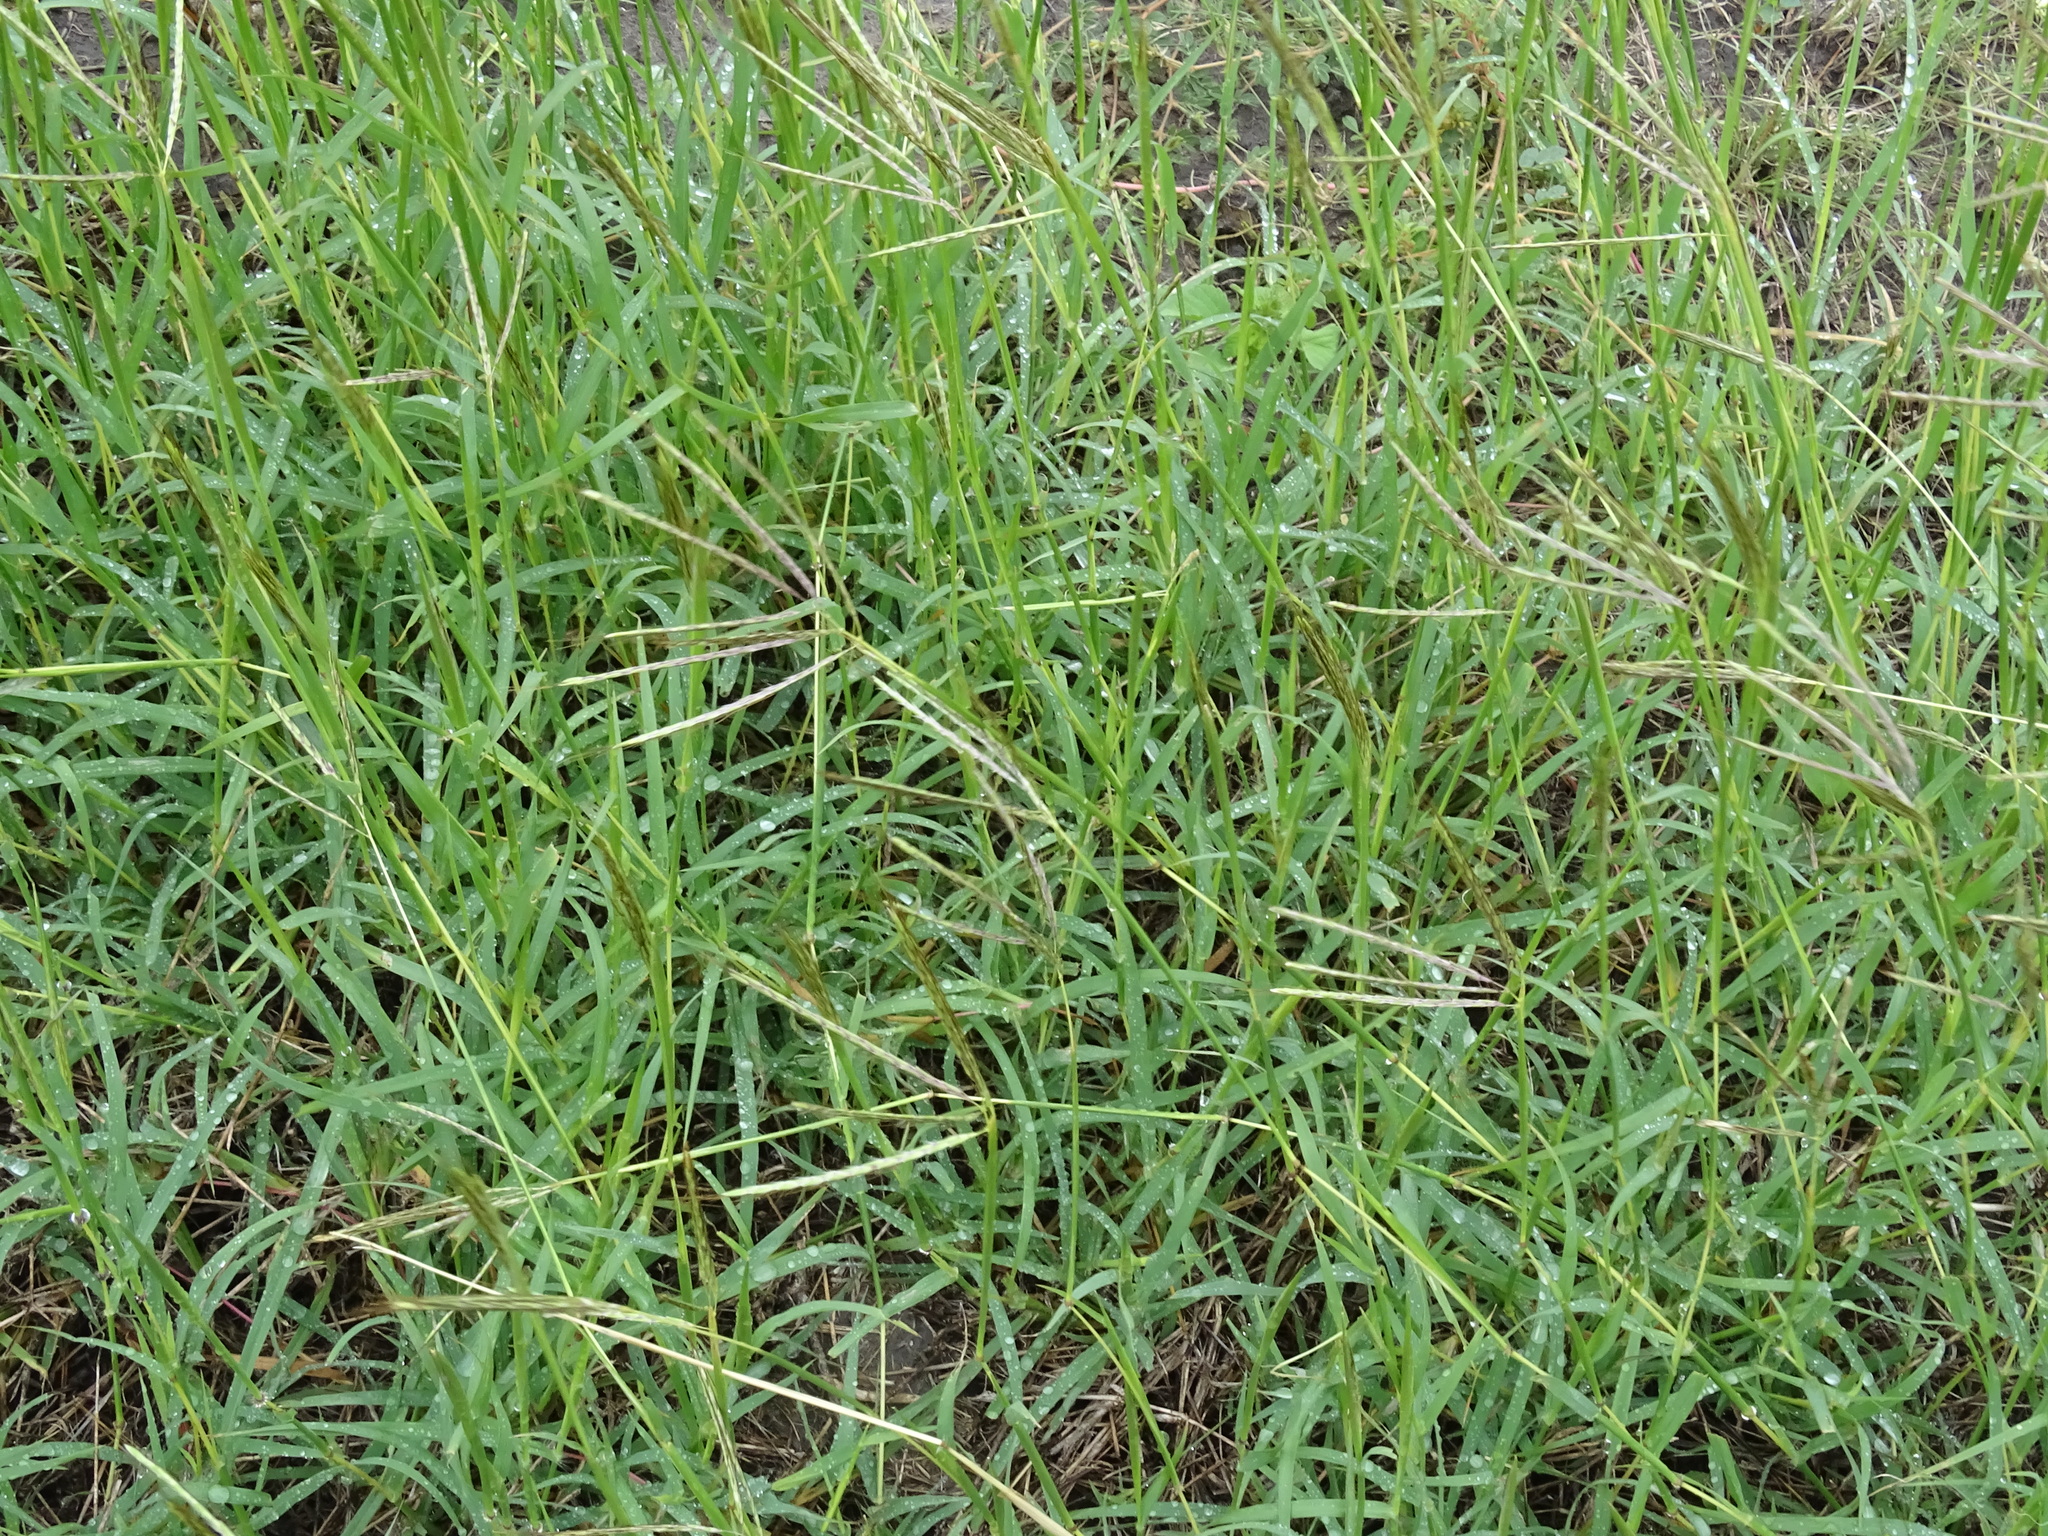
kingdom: Plantae
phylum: Tracheophyta
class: Liliopsida
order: Poales
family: Poaceae
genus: Dichanthium
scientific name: Dichanthium annulatum
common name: Kleberg's bluestem
